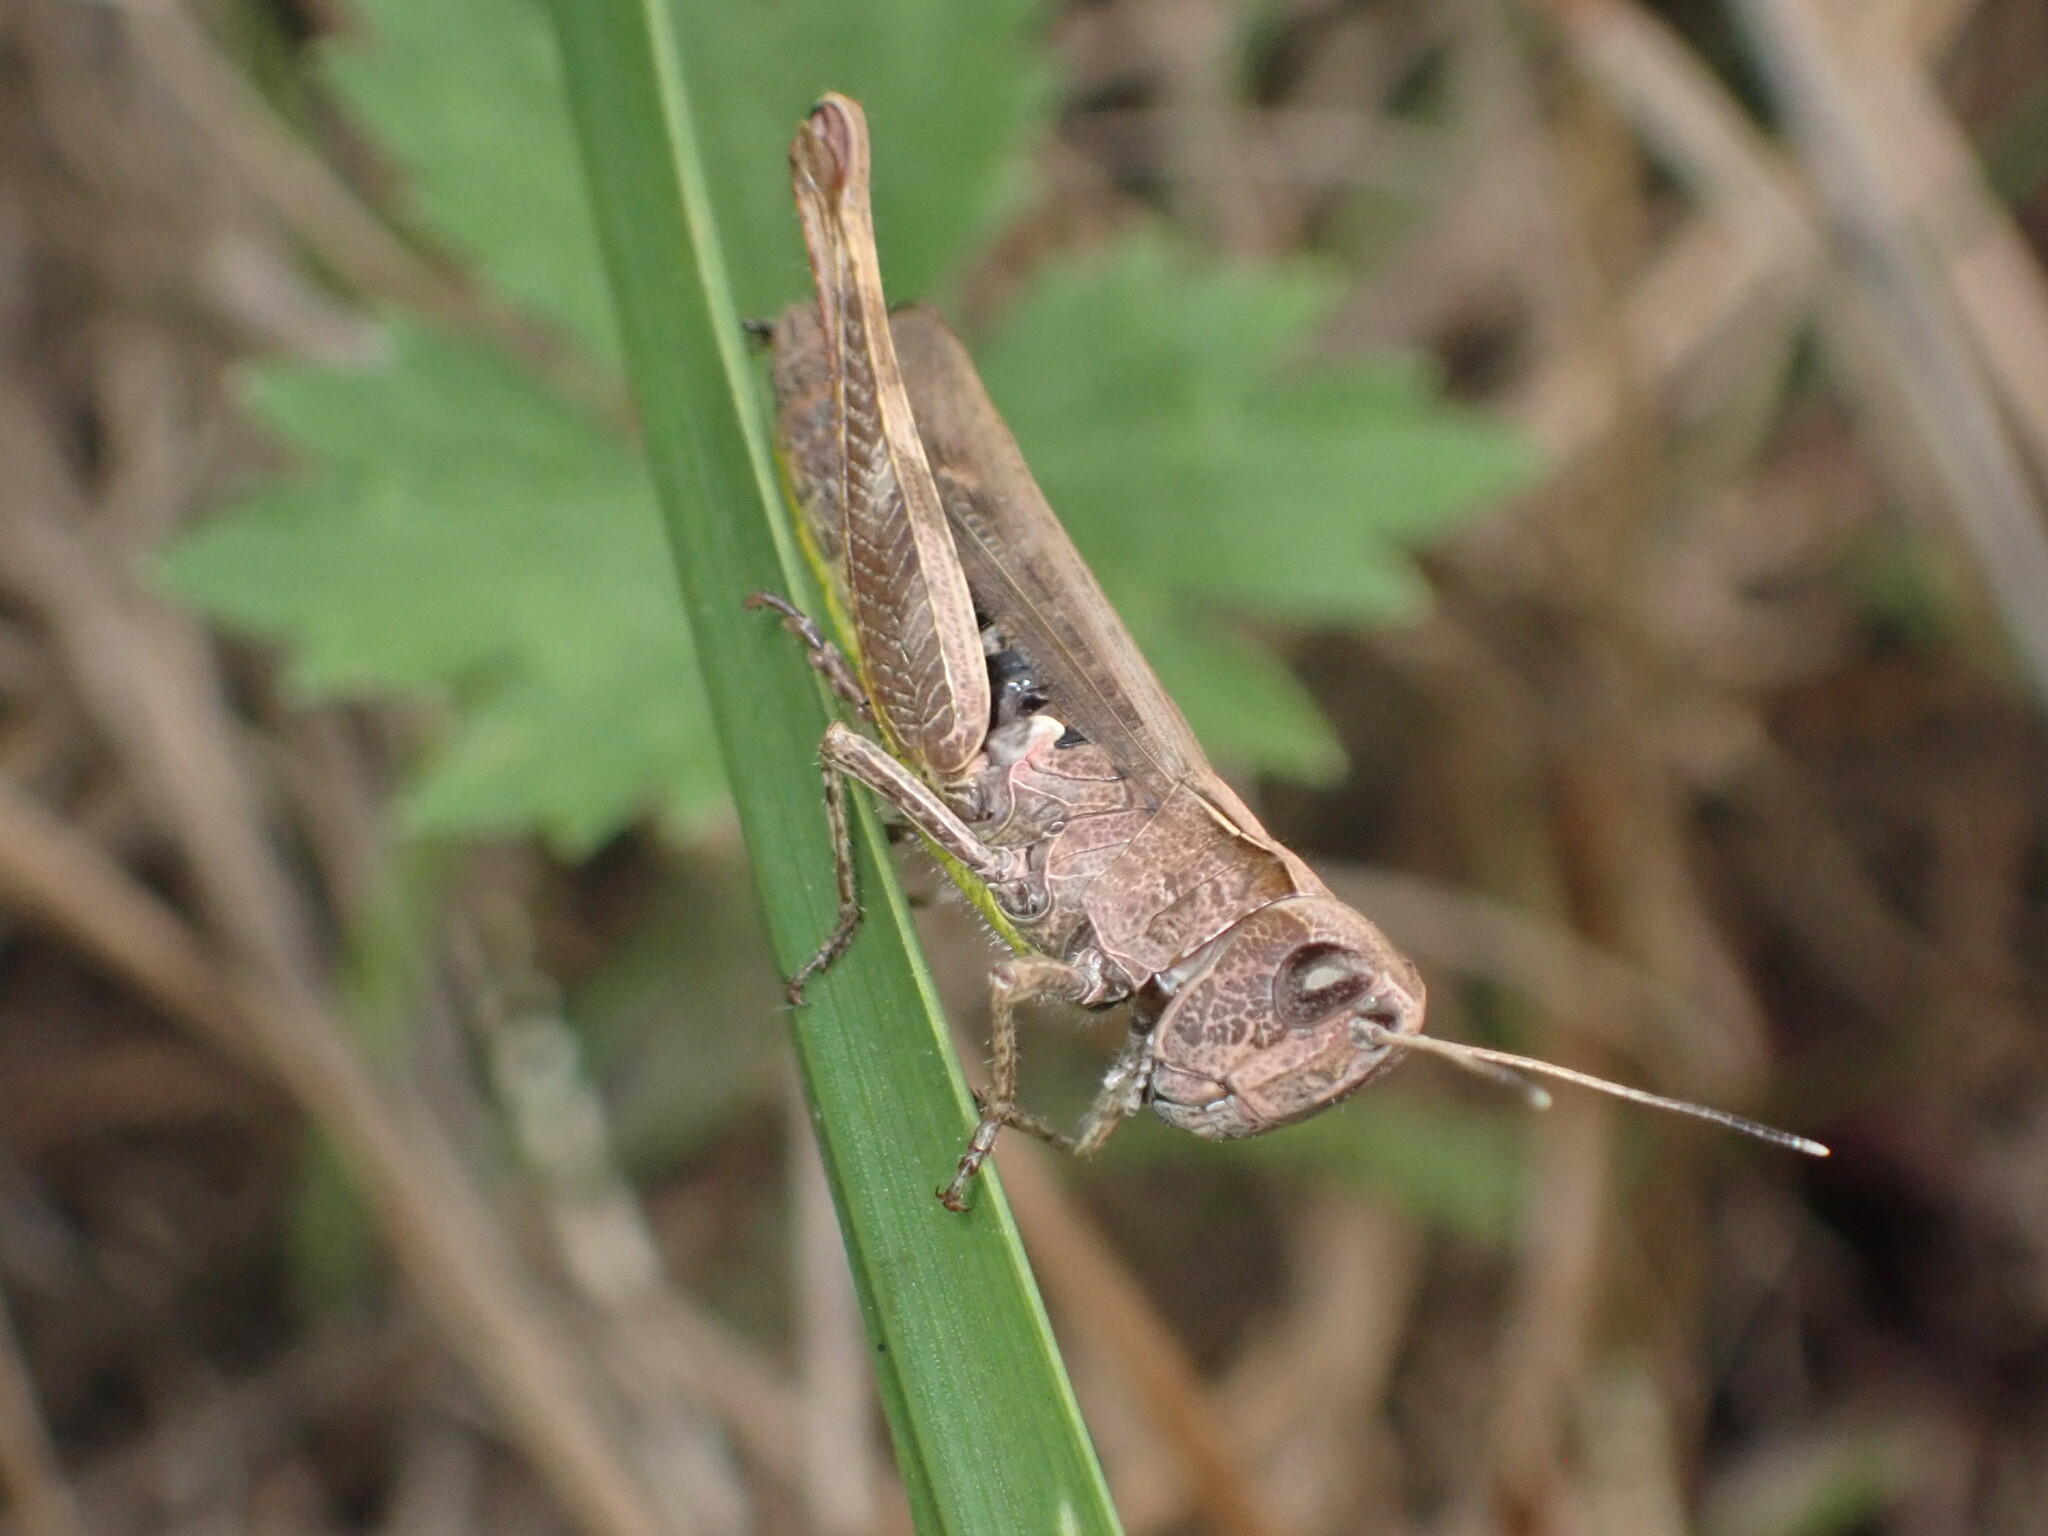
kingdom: Animalia
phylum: Arthropoda
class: Insecta
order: Orthoptera
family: Acrididae
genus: Gomphocerippus
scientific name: Gomphocerippus rufus
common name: Rufous grasshopper
